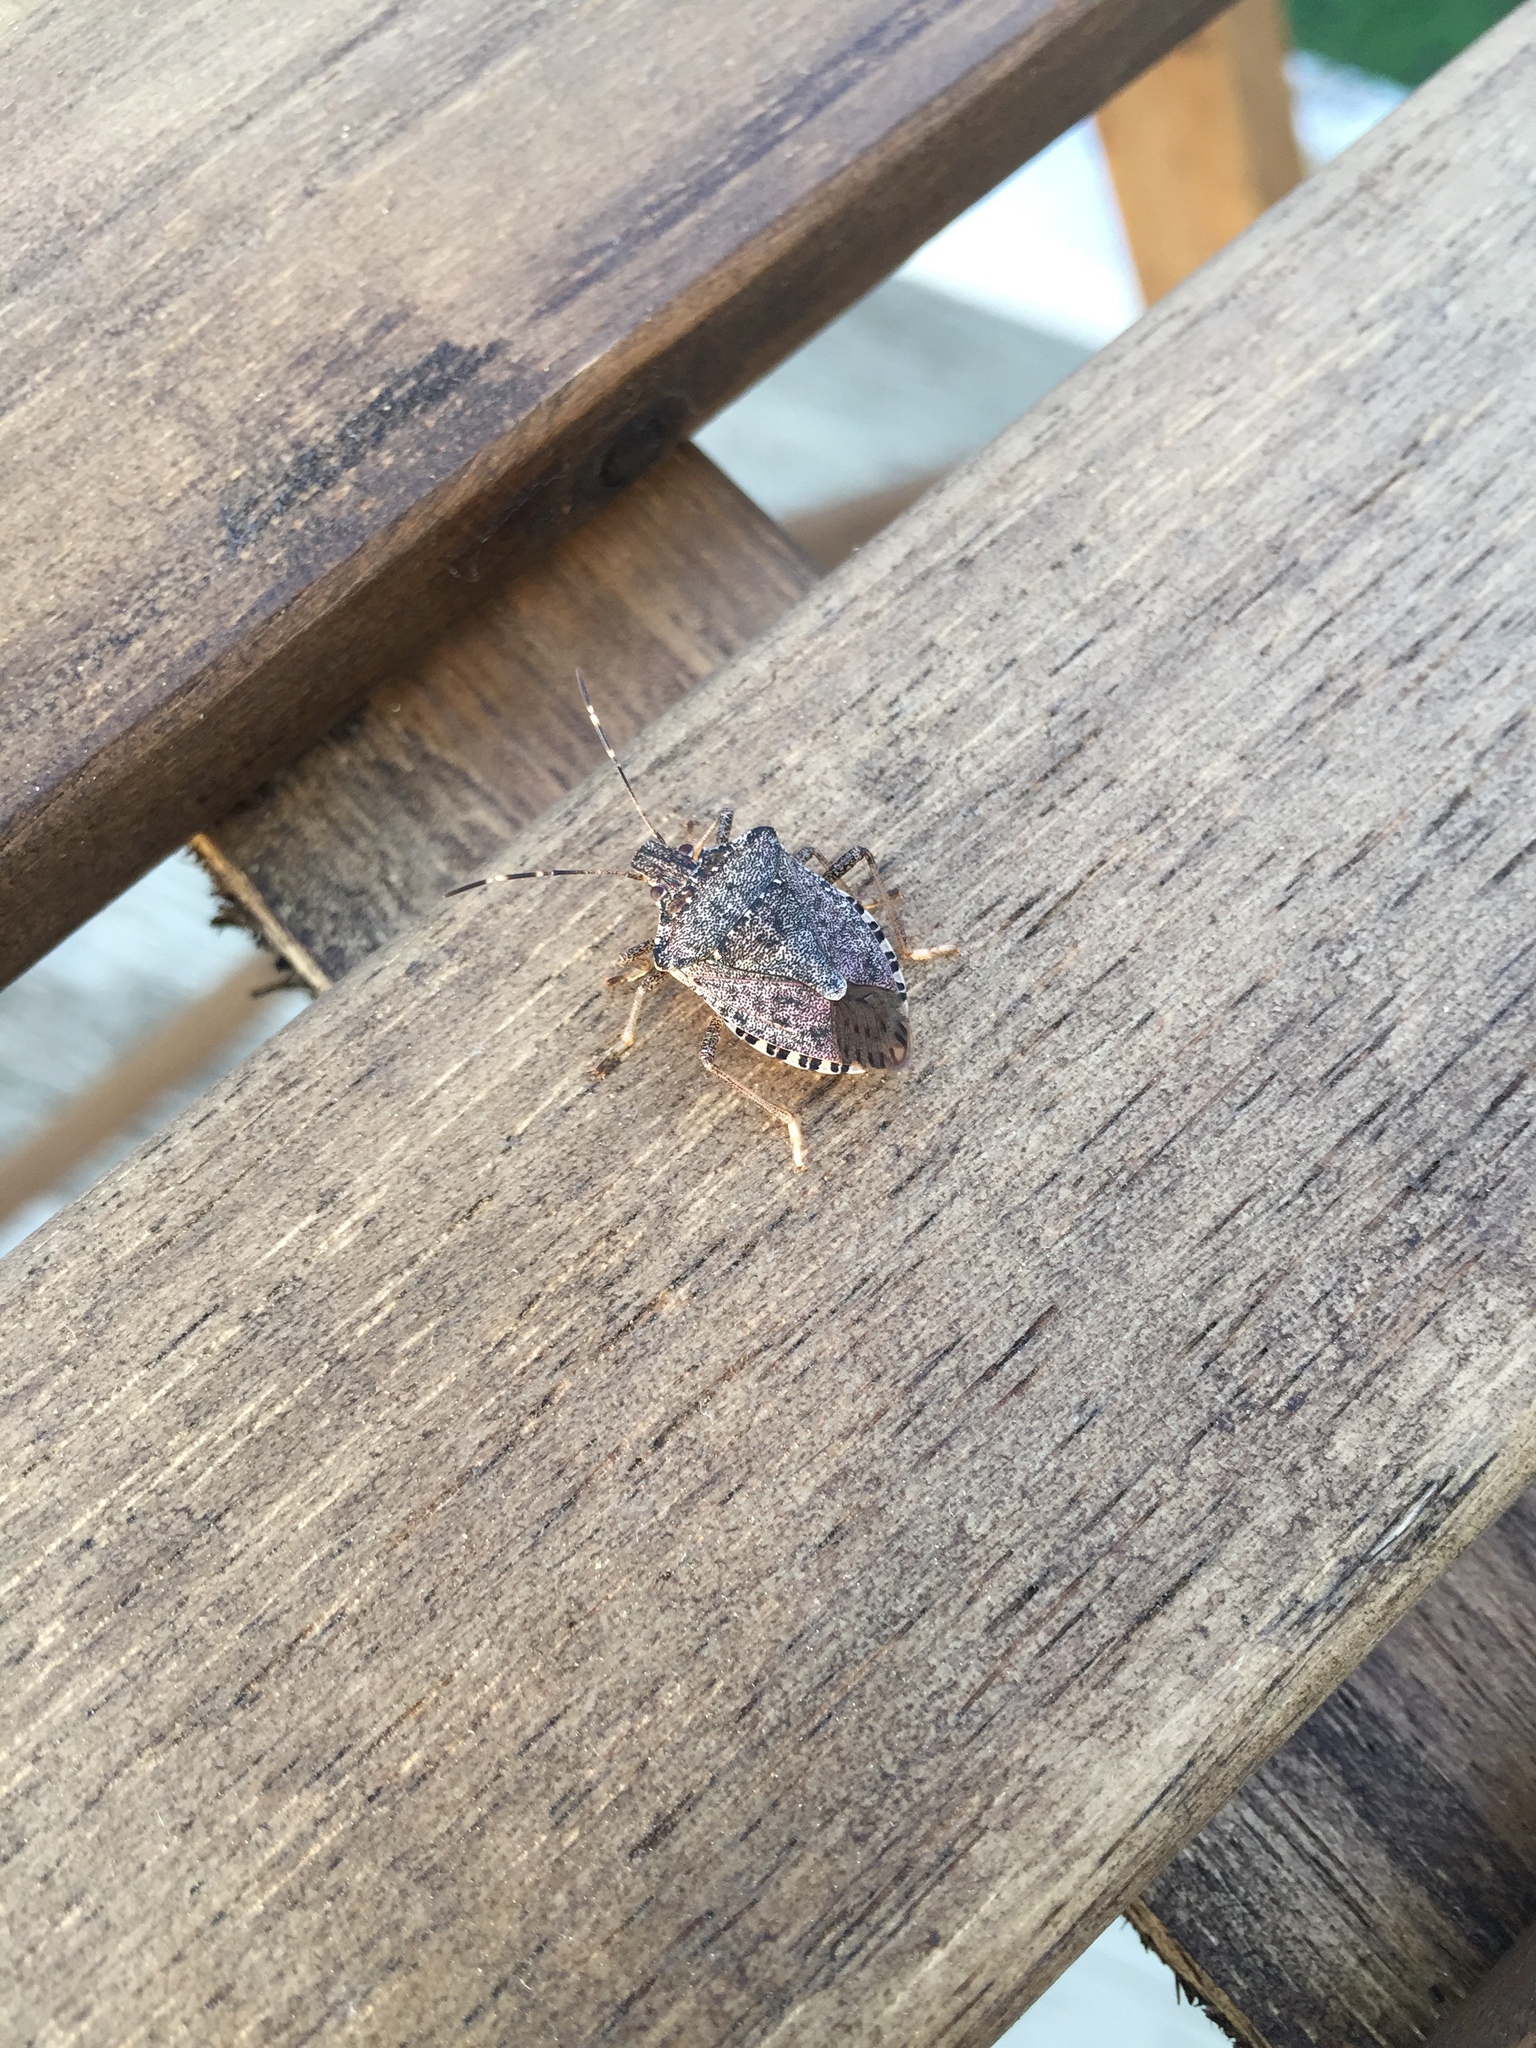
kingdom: Animalia
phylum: Arthropoda
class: Insecta
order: Hemiptera
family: Pentatomidae
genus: Halyomorpha
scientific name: Halyomorpha halys
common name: Brown marmorated stink bug
